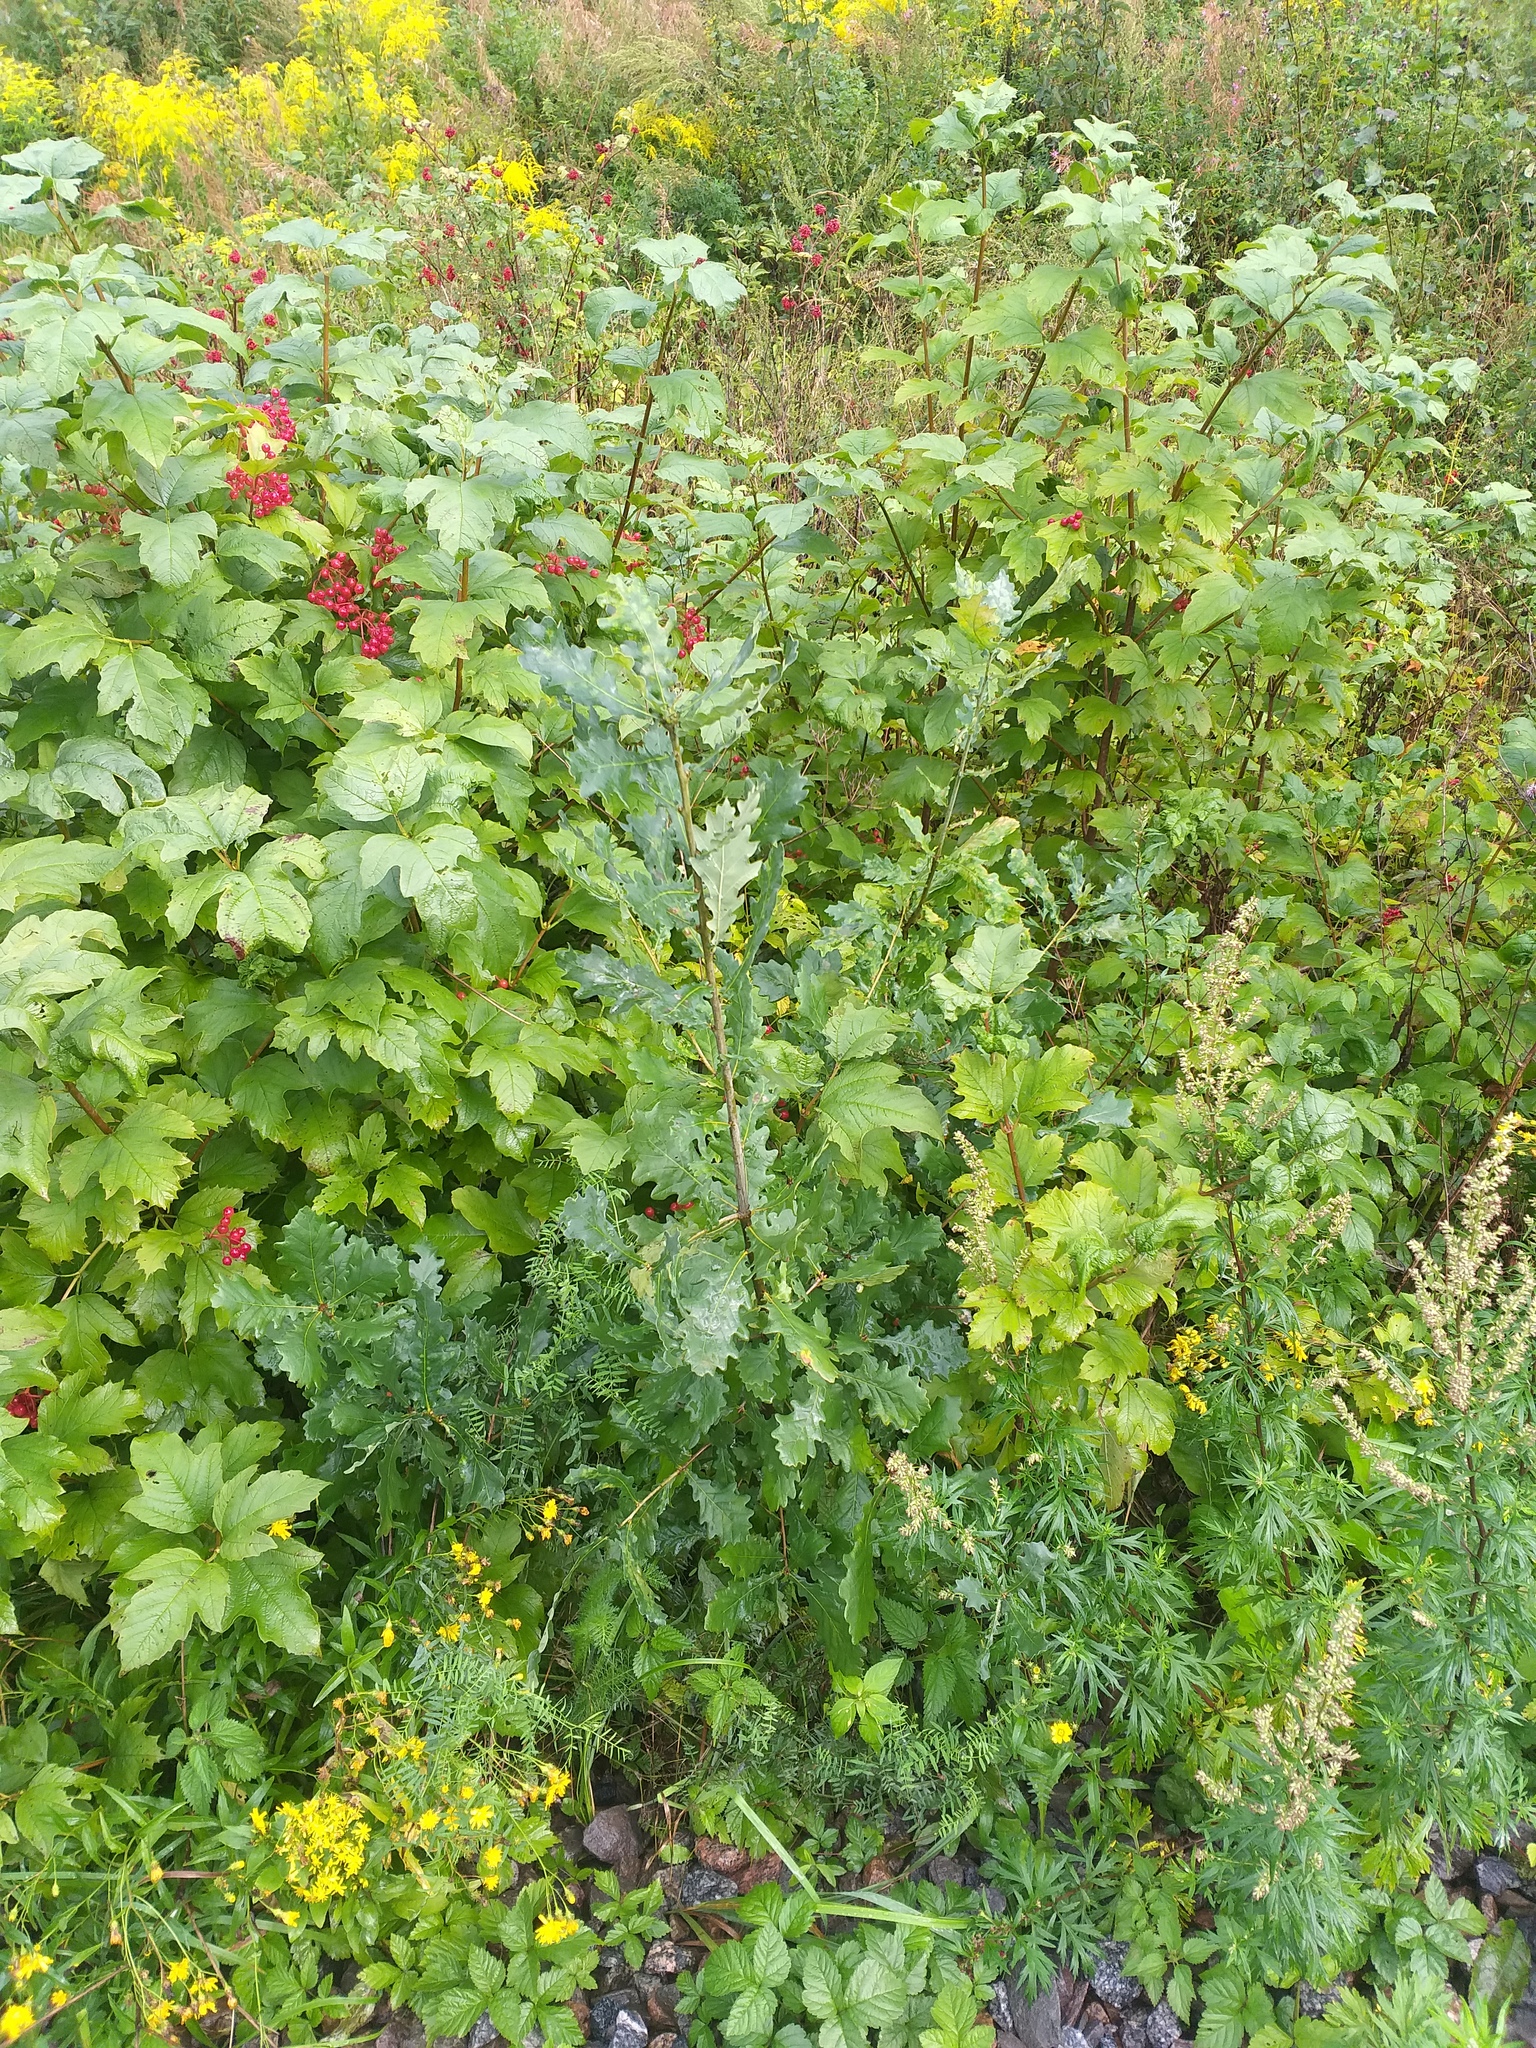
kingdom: Plantae
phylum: Tracheophyta
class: Magnoliopsida
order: Fagales
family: Fagaceae
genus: Quercus
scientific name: Quercus robur
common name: Pedunculate oak
